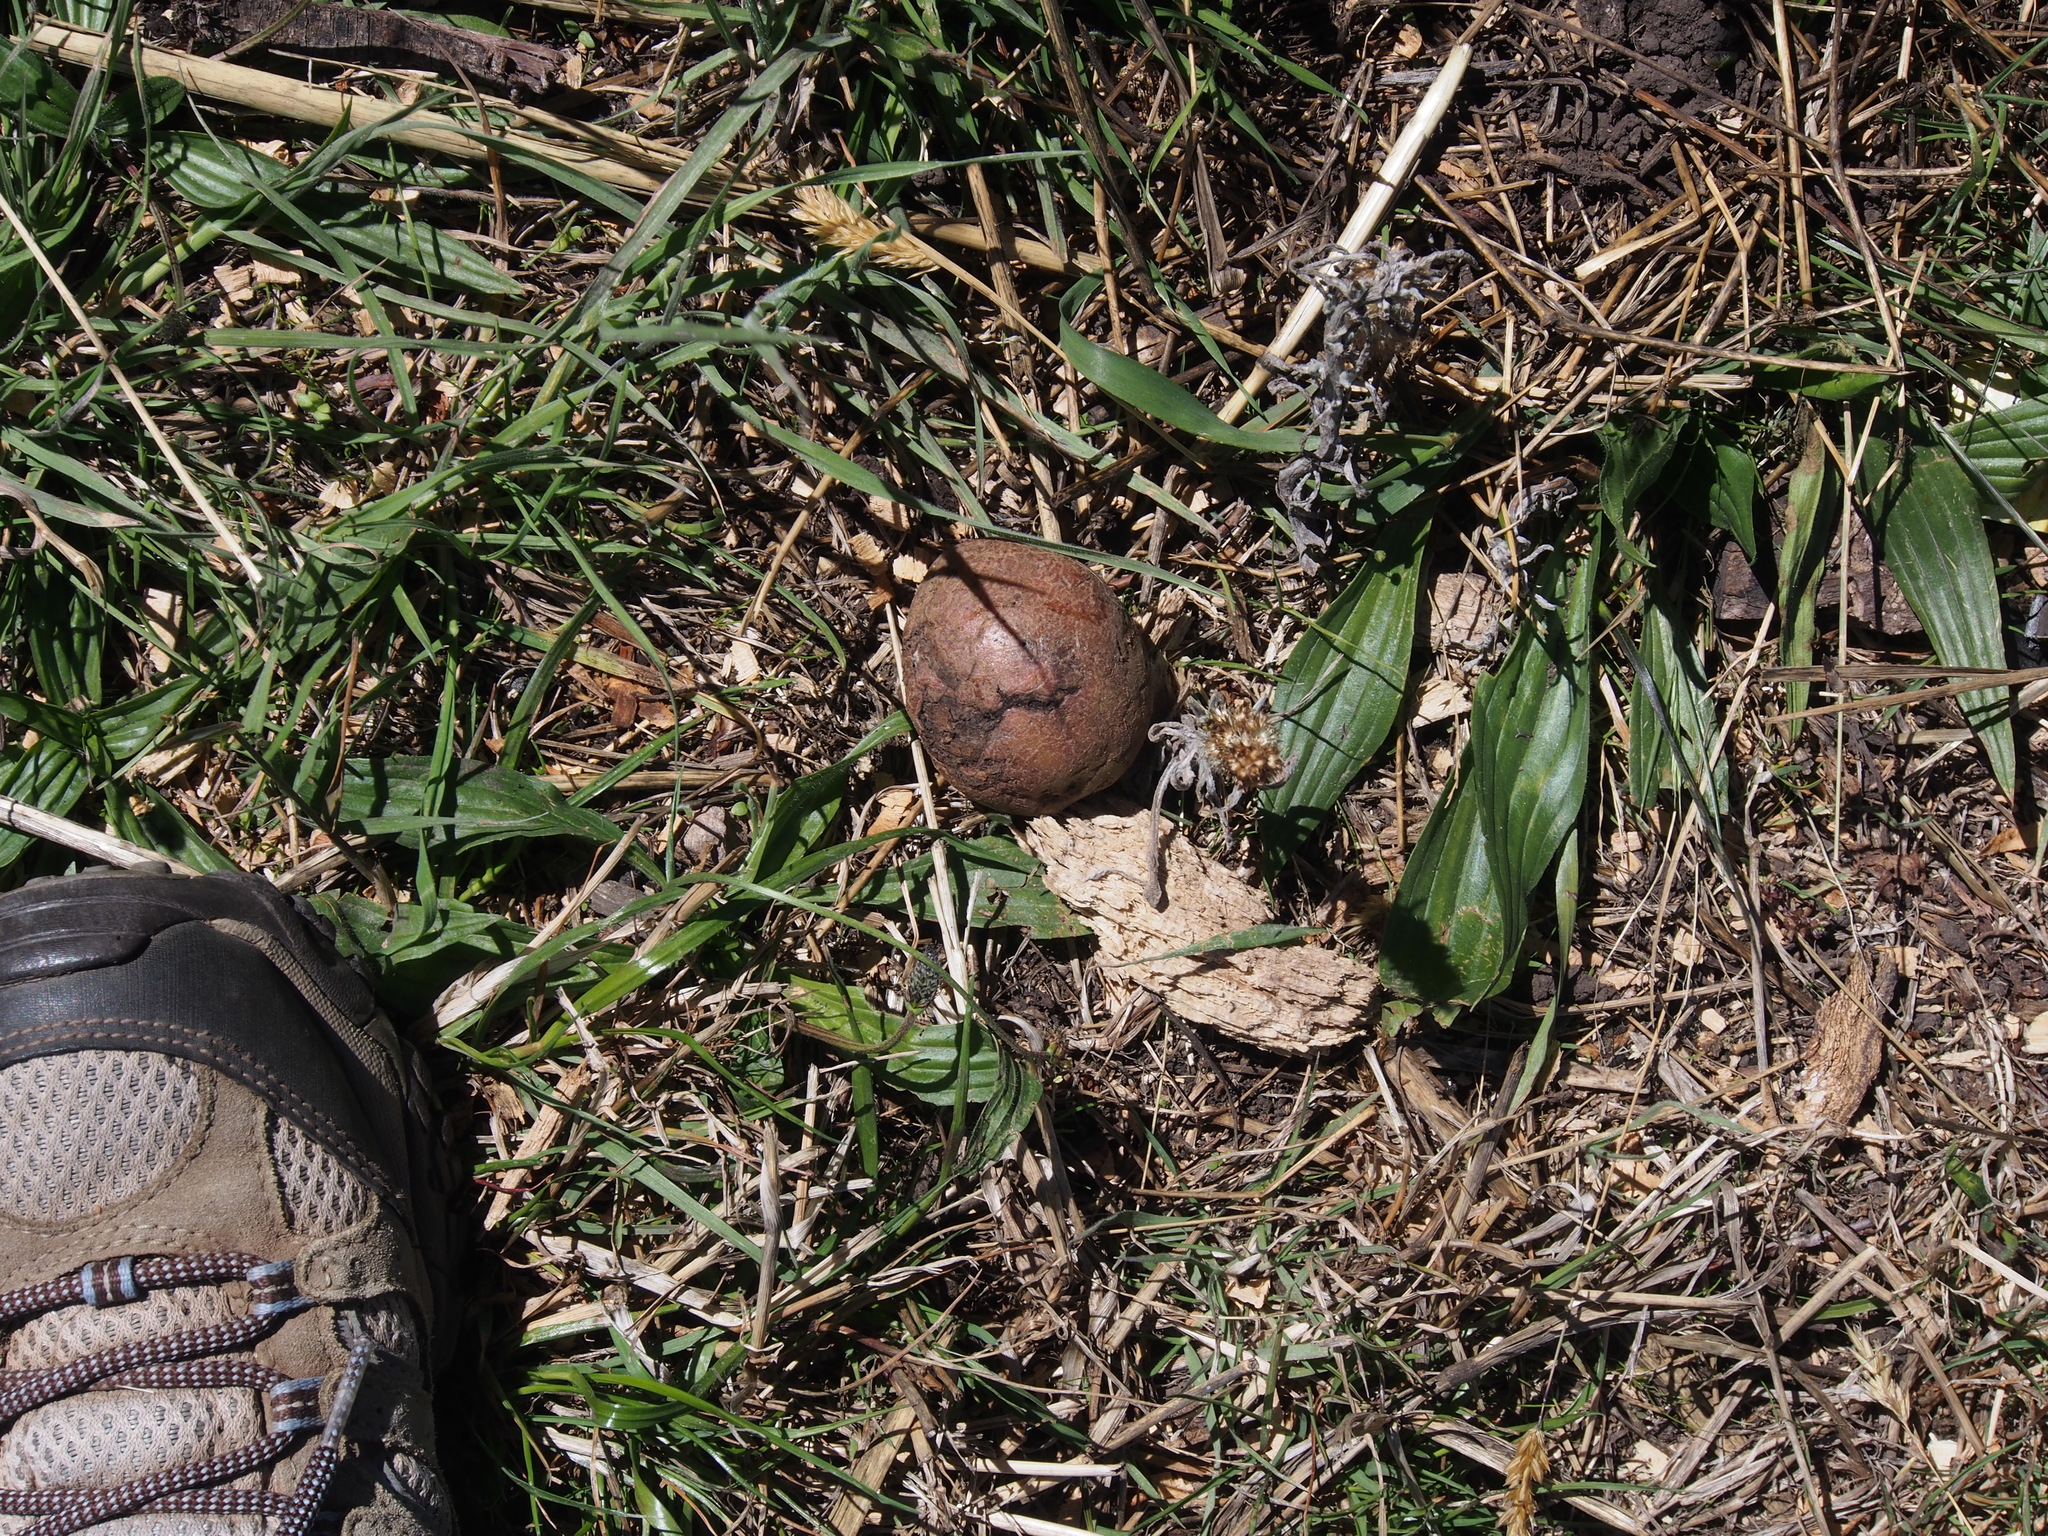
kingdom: Plantae
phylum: Tracheophyta
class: Magnoliopsida
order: Lamiales
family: Plantaginaceae
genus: Plantago
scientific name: Plantago lanceolata
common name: Ribwort plantain
